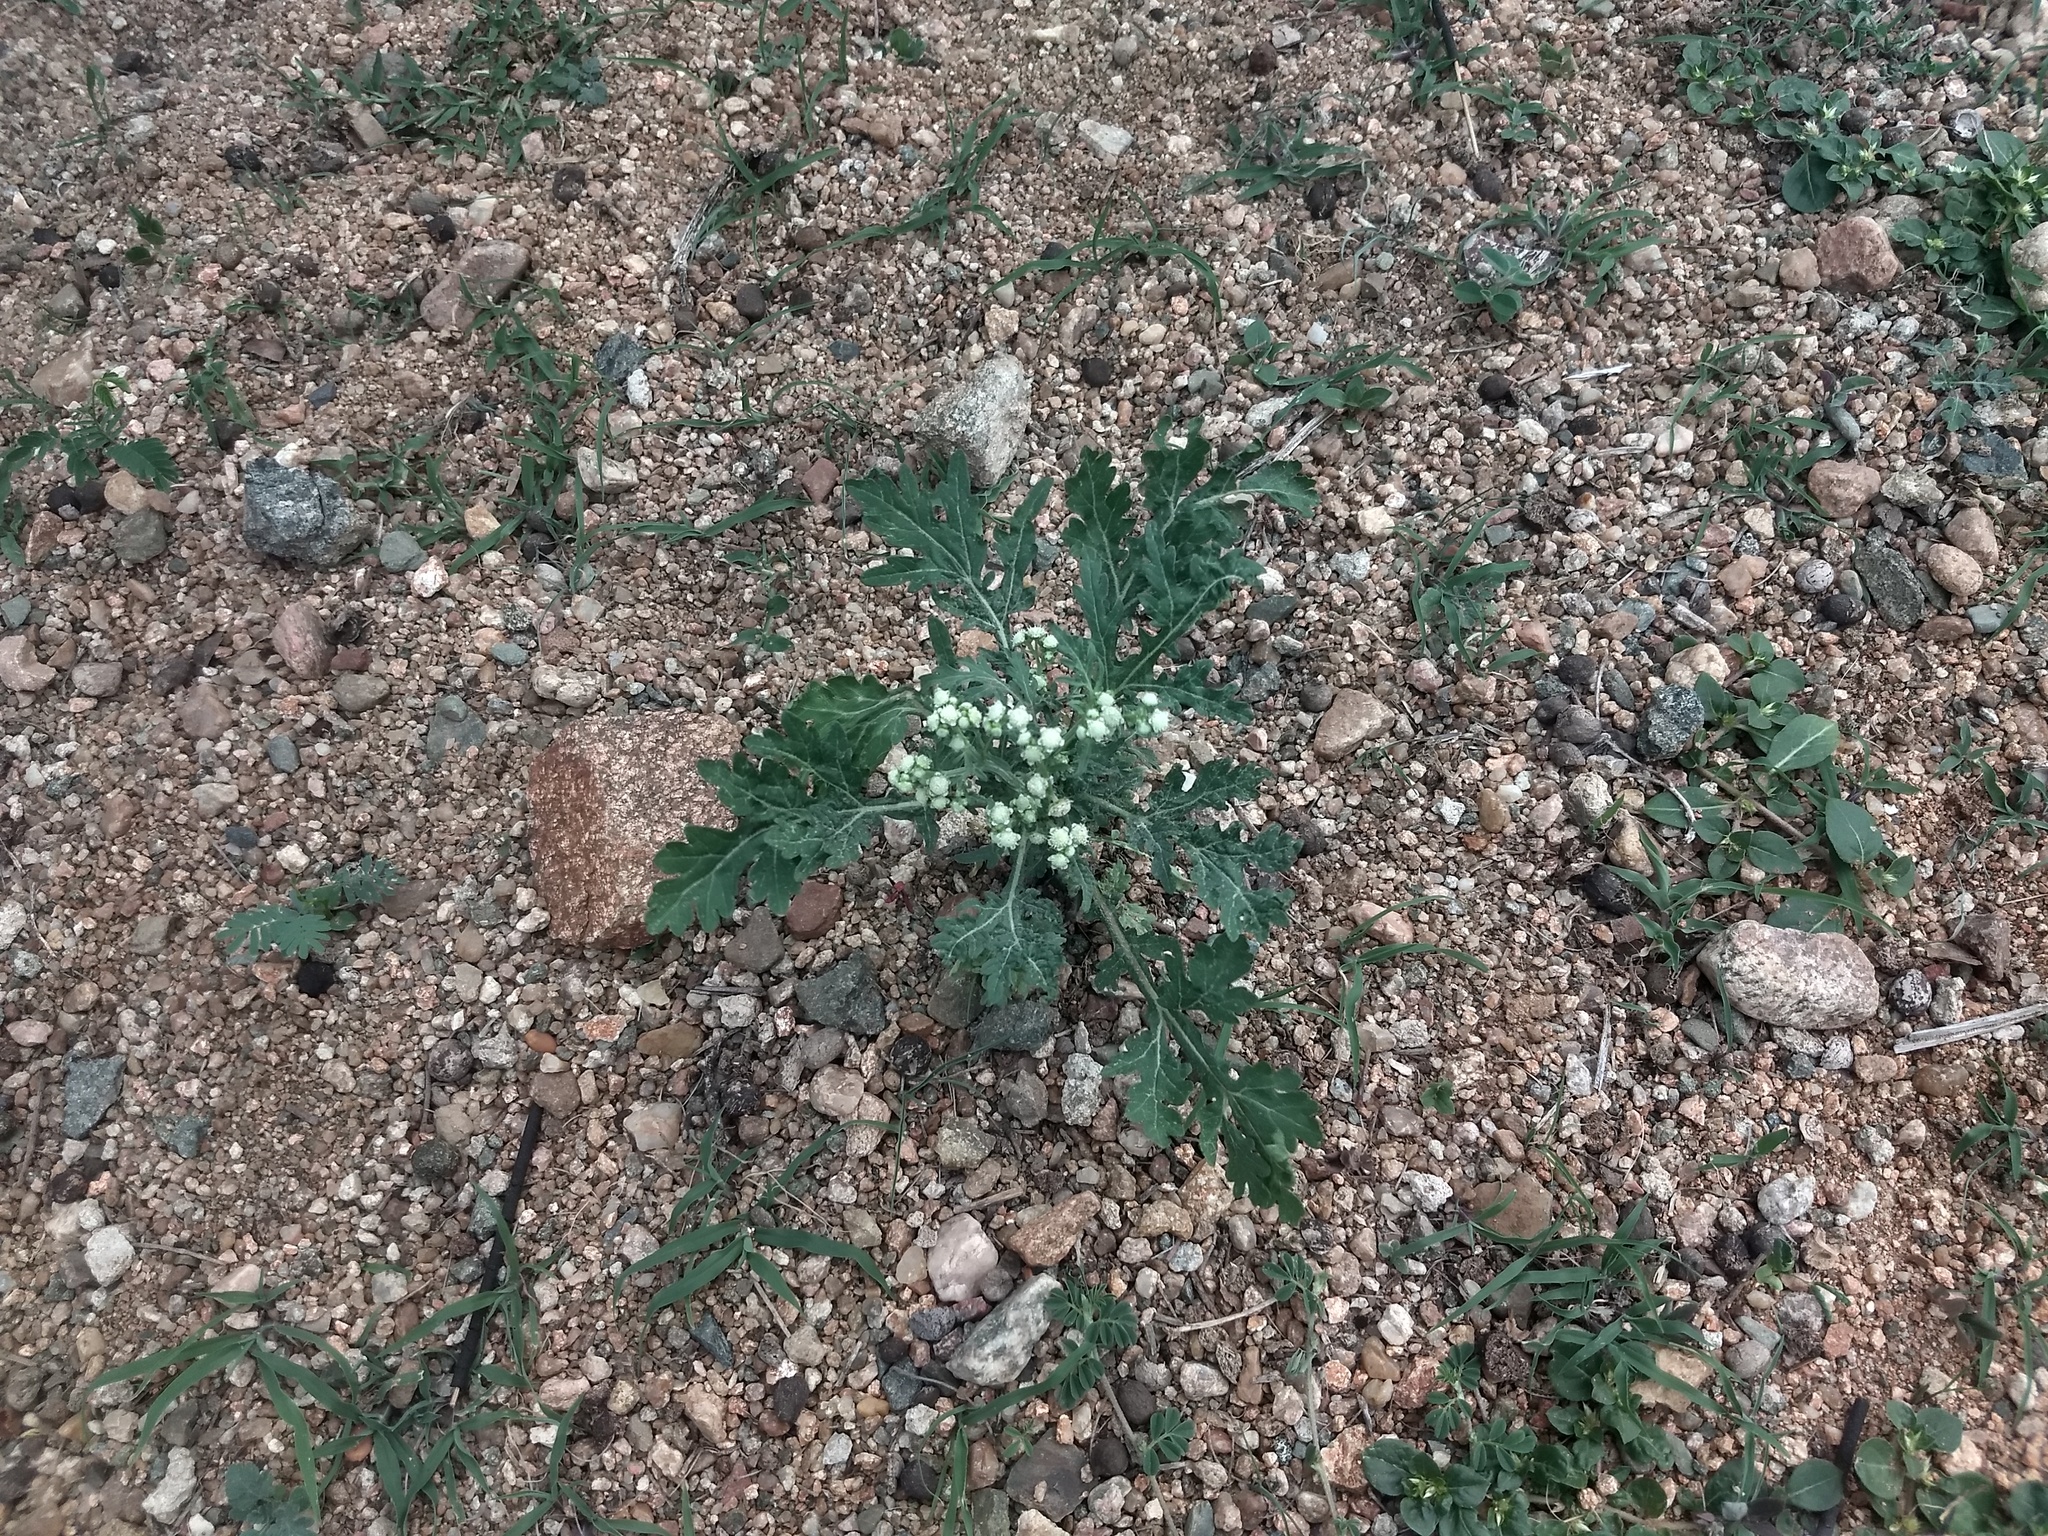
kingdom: Plantae
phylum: Tracheophyta
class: Magnoliopsida
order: Asterales
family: Asteraceae
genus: Parthenium
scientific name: Parthenium hysterophorus
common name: Santa maria feverfew
